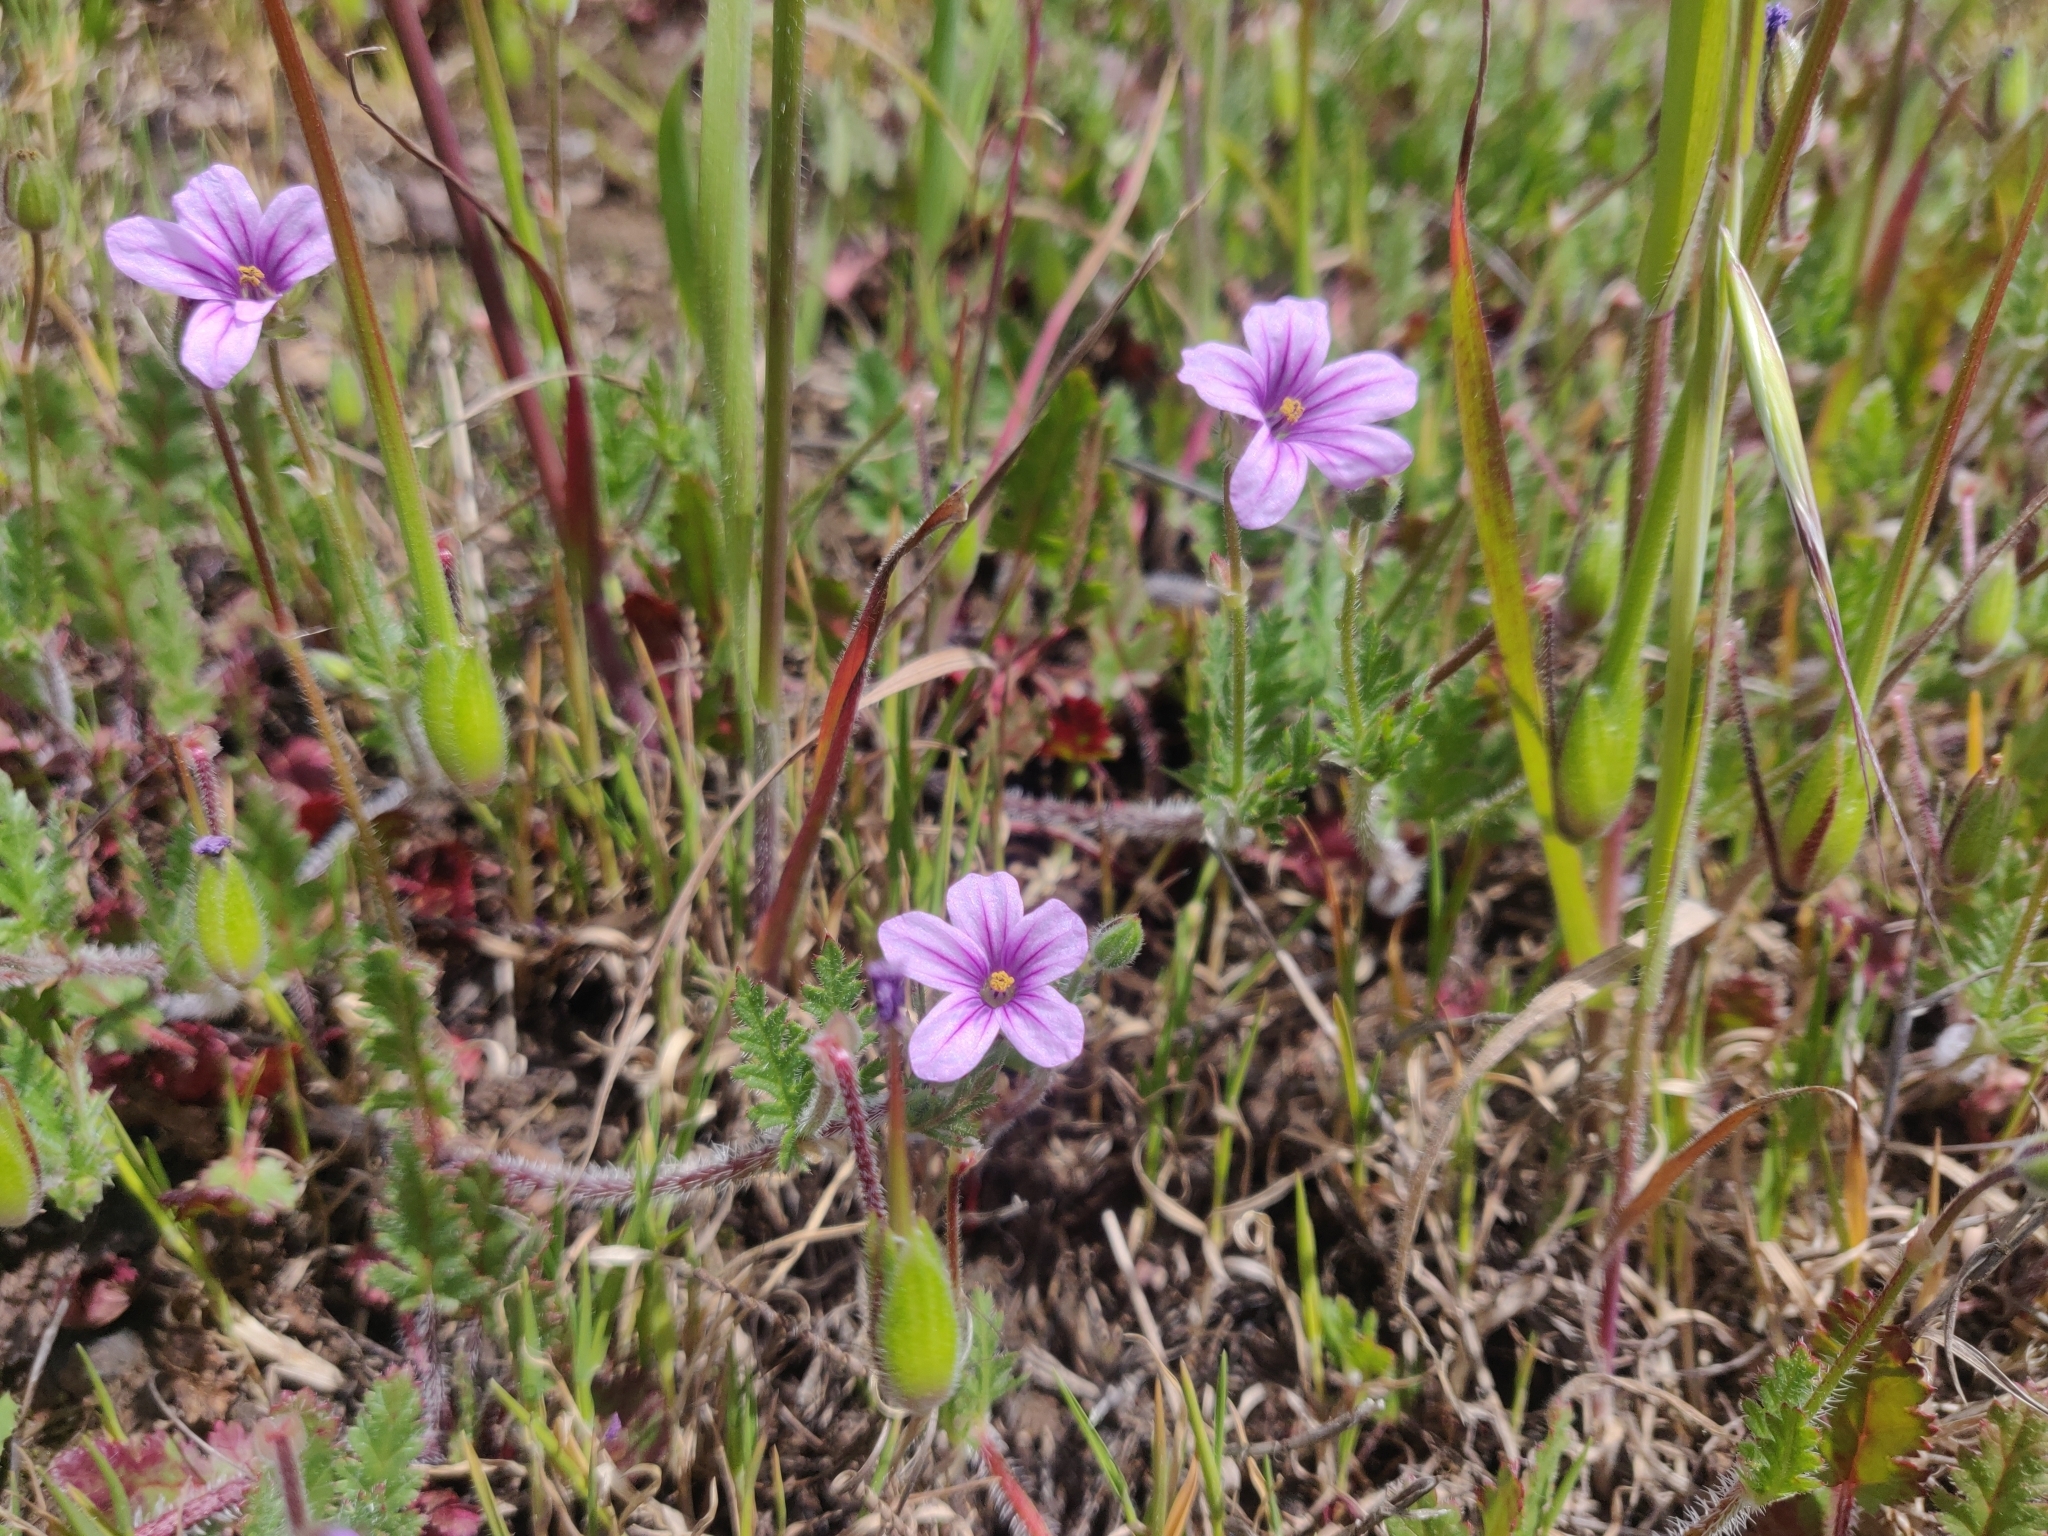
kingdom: Plantae
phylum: Tracheophyta
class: Magnoliopsida
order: Geraniales
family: Geraniaceae
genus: Erodium
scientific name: Erodium botrys
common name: Mediterranean stork's-bill
